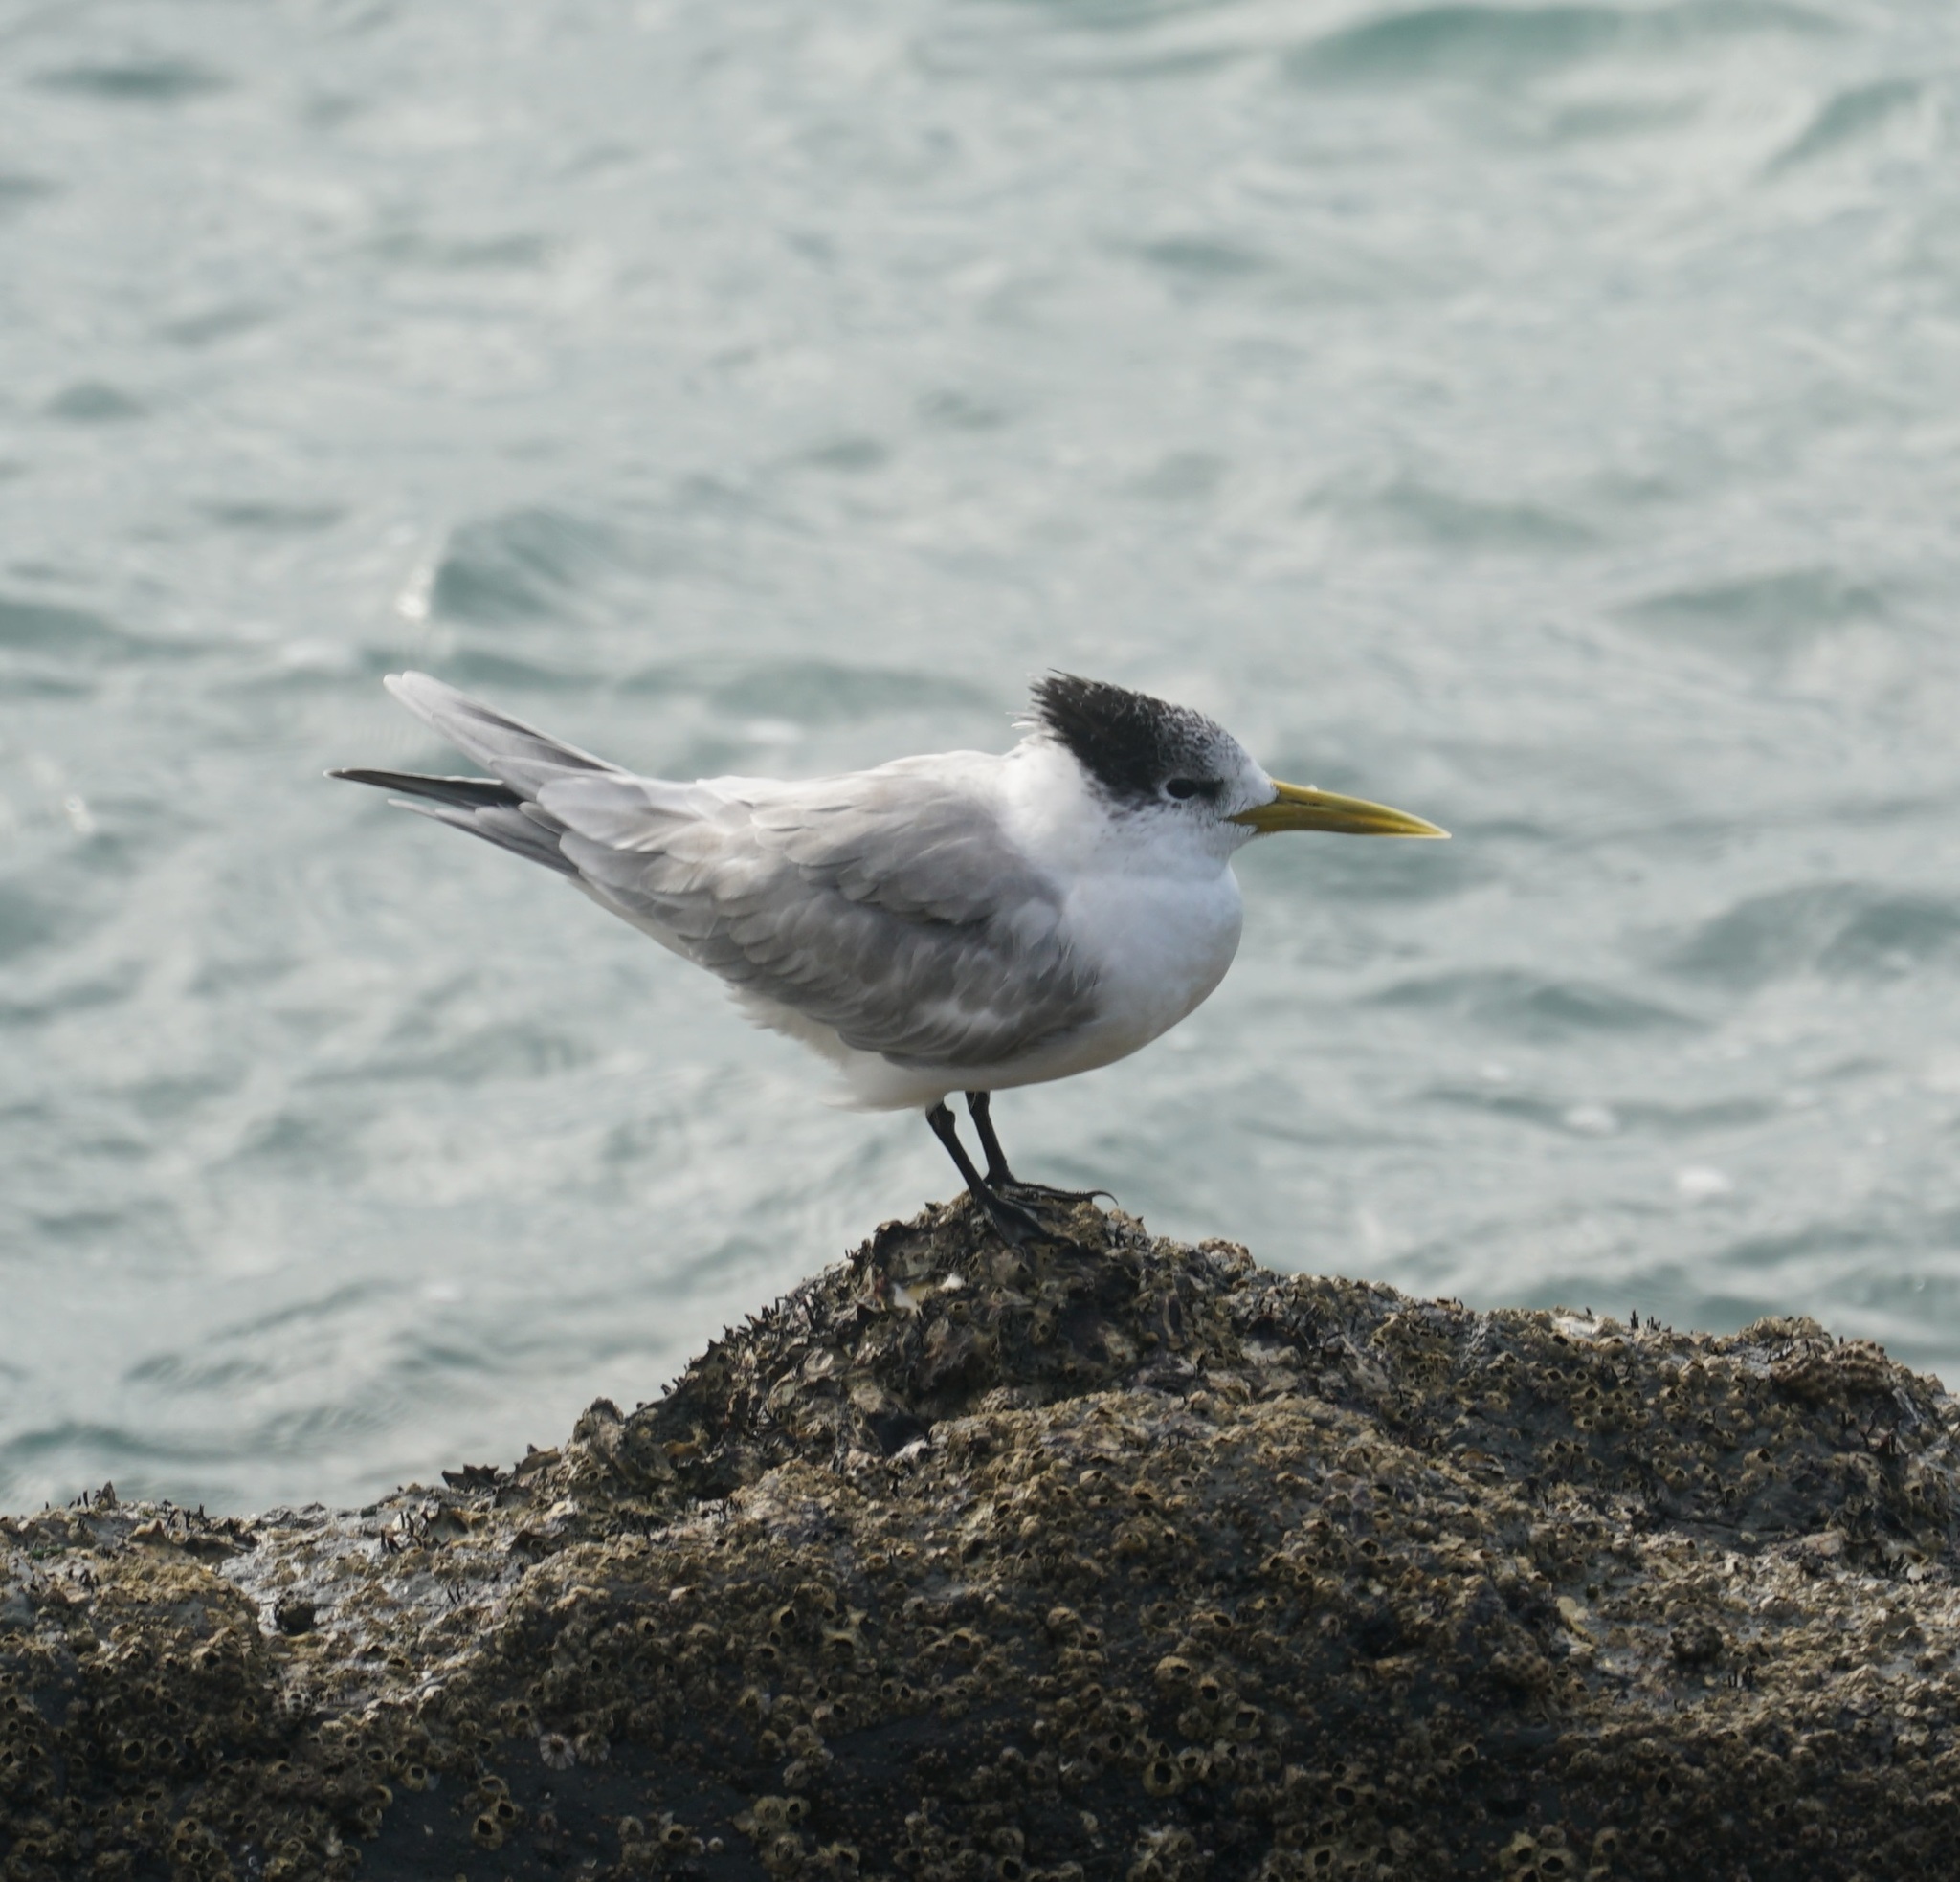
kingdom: Animalia
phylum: Chordata
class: Aves
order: Charadriiformes
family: Laridae
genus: Thalasseus
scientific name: Thalasseus bergii
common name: Greater crested tern
